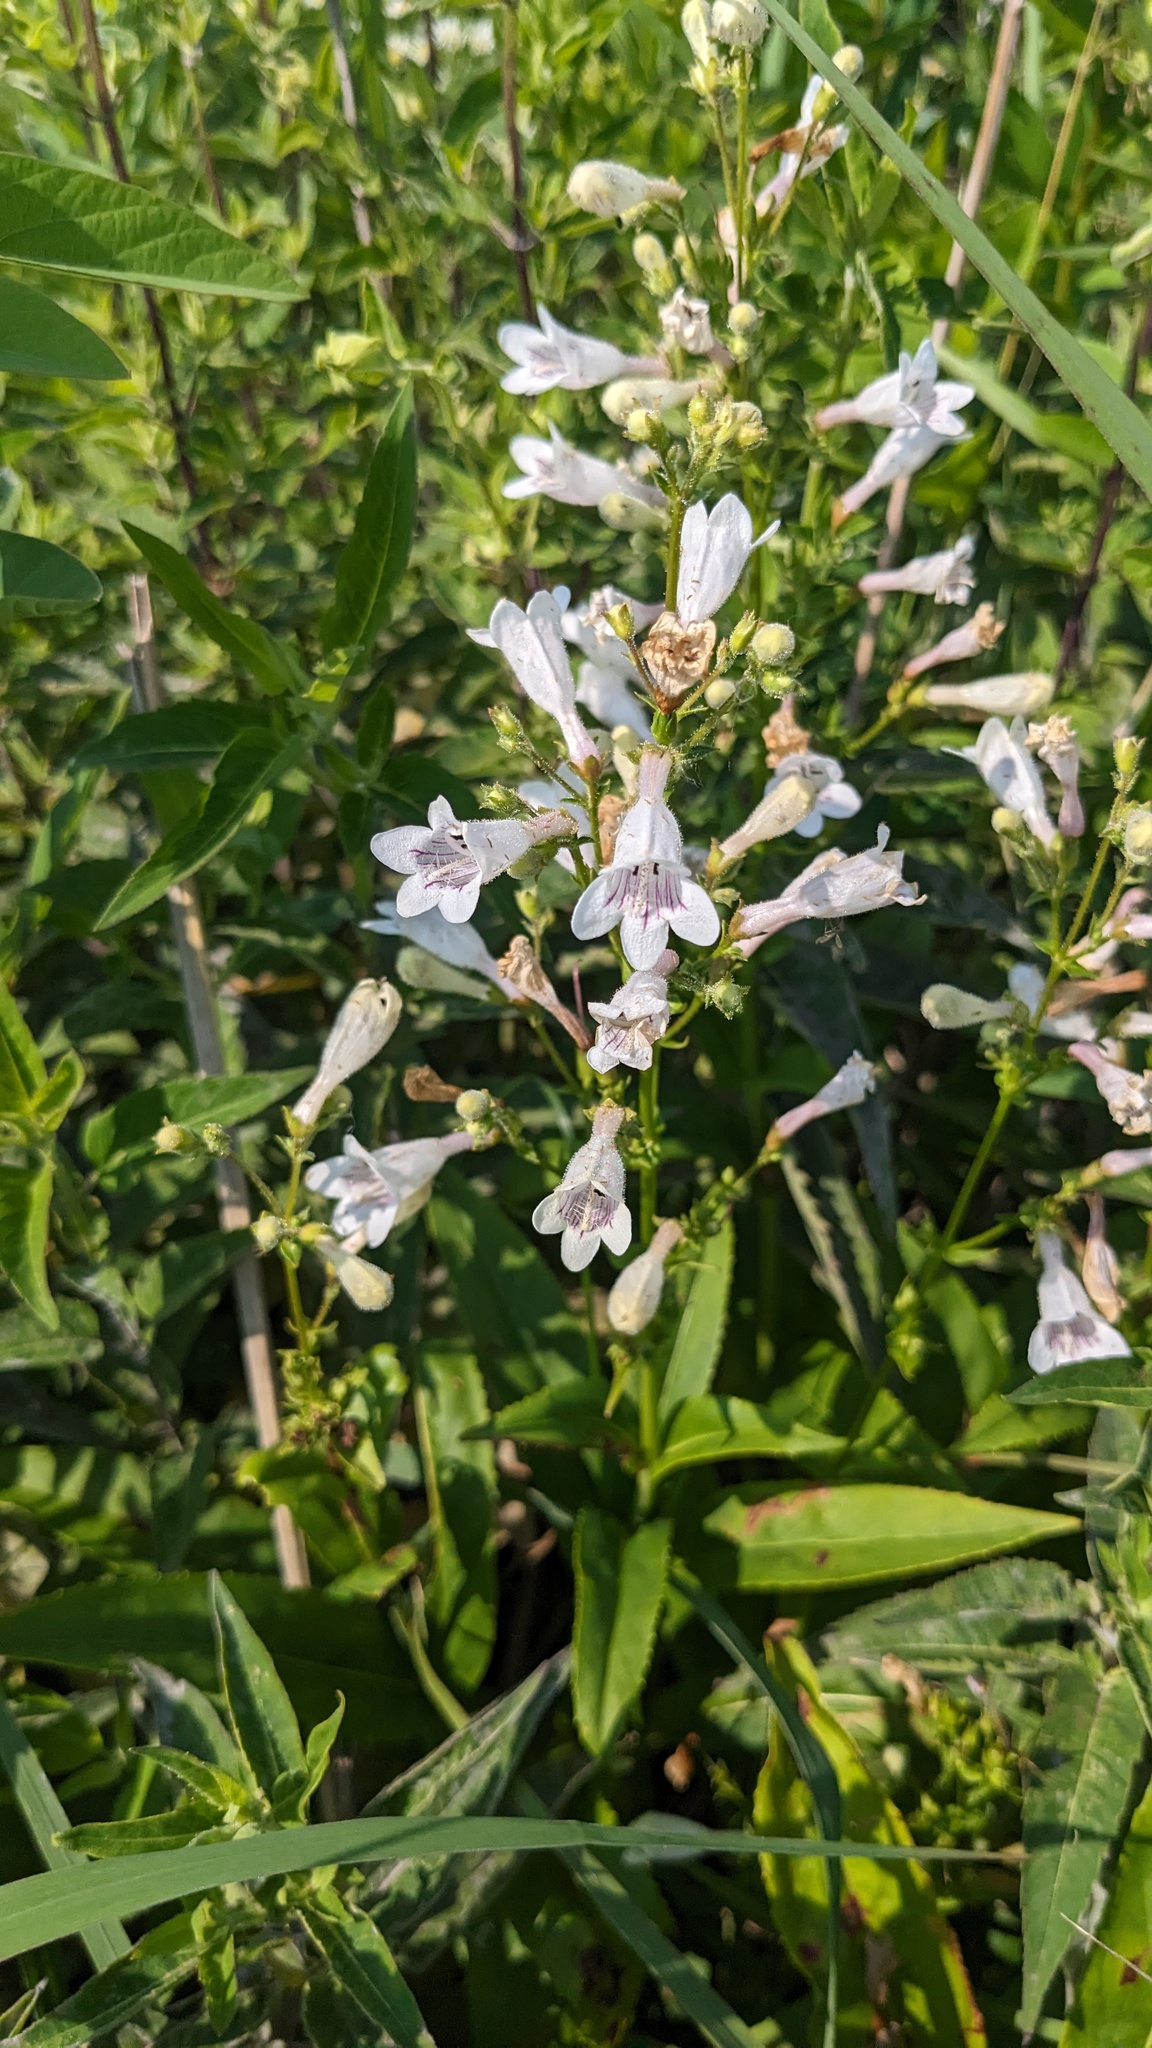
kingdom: Plantae
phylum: Tracheophyta
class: Magnoliopsida
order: Lamiales
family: Plantaginaceae
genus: Penstemon
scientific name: Penstemon digitalis
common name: Foxglove beardtongue
